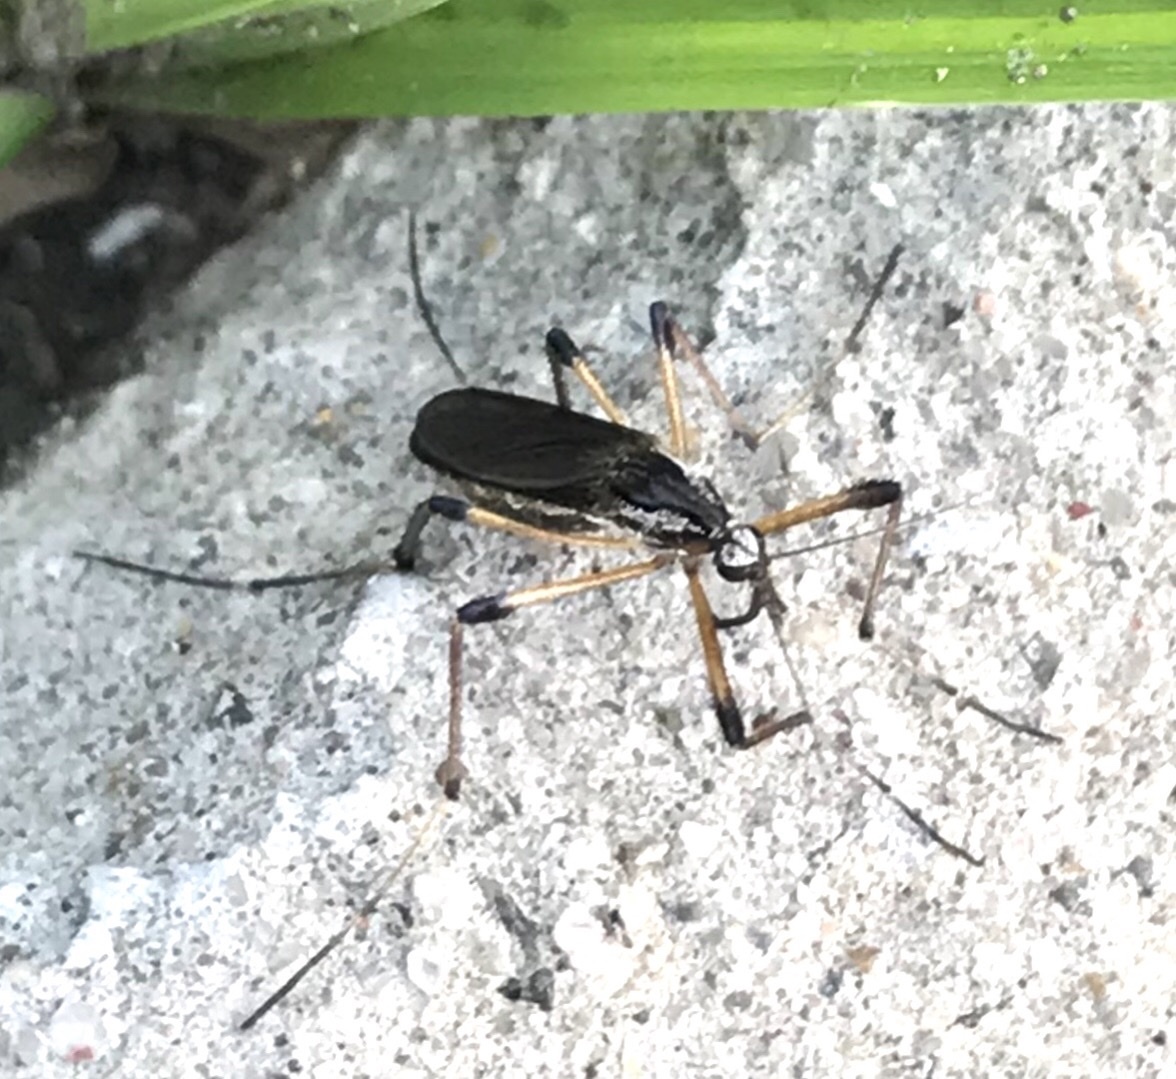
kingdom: Animalia
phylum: Arthropoda
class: Insecta
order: Diptera
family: Culicidae
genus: Psorophora
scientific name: Psorophora howardii
